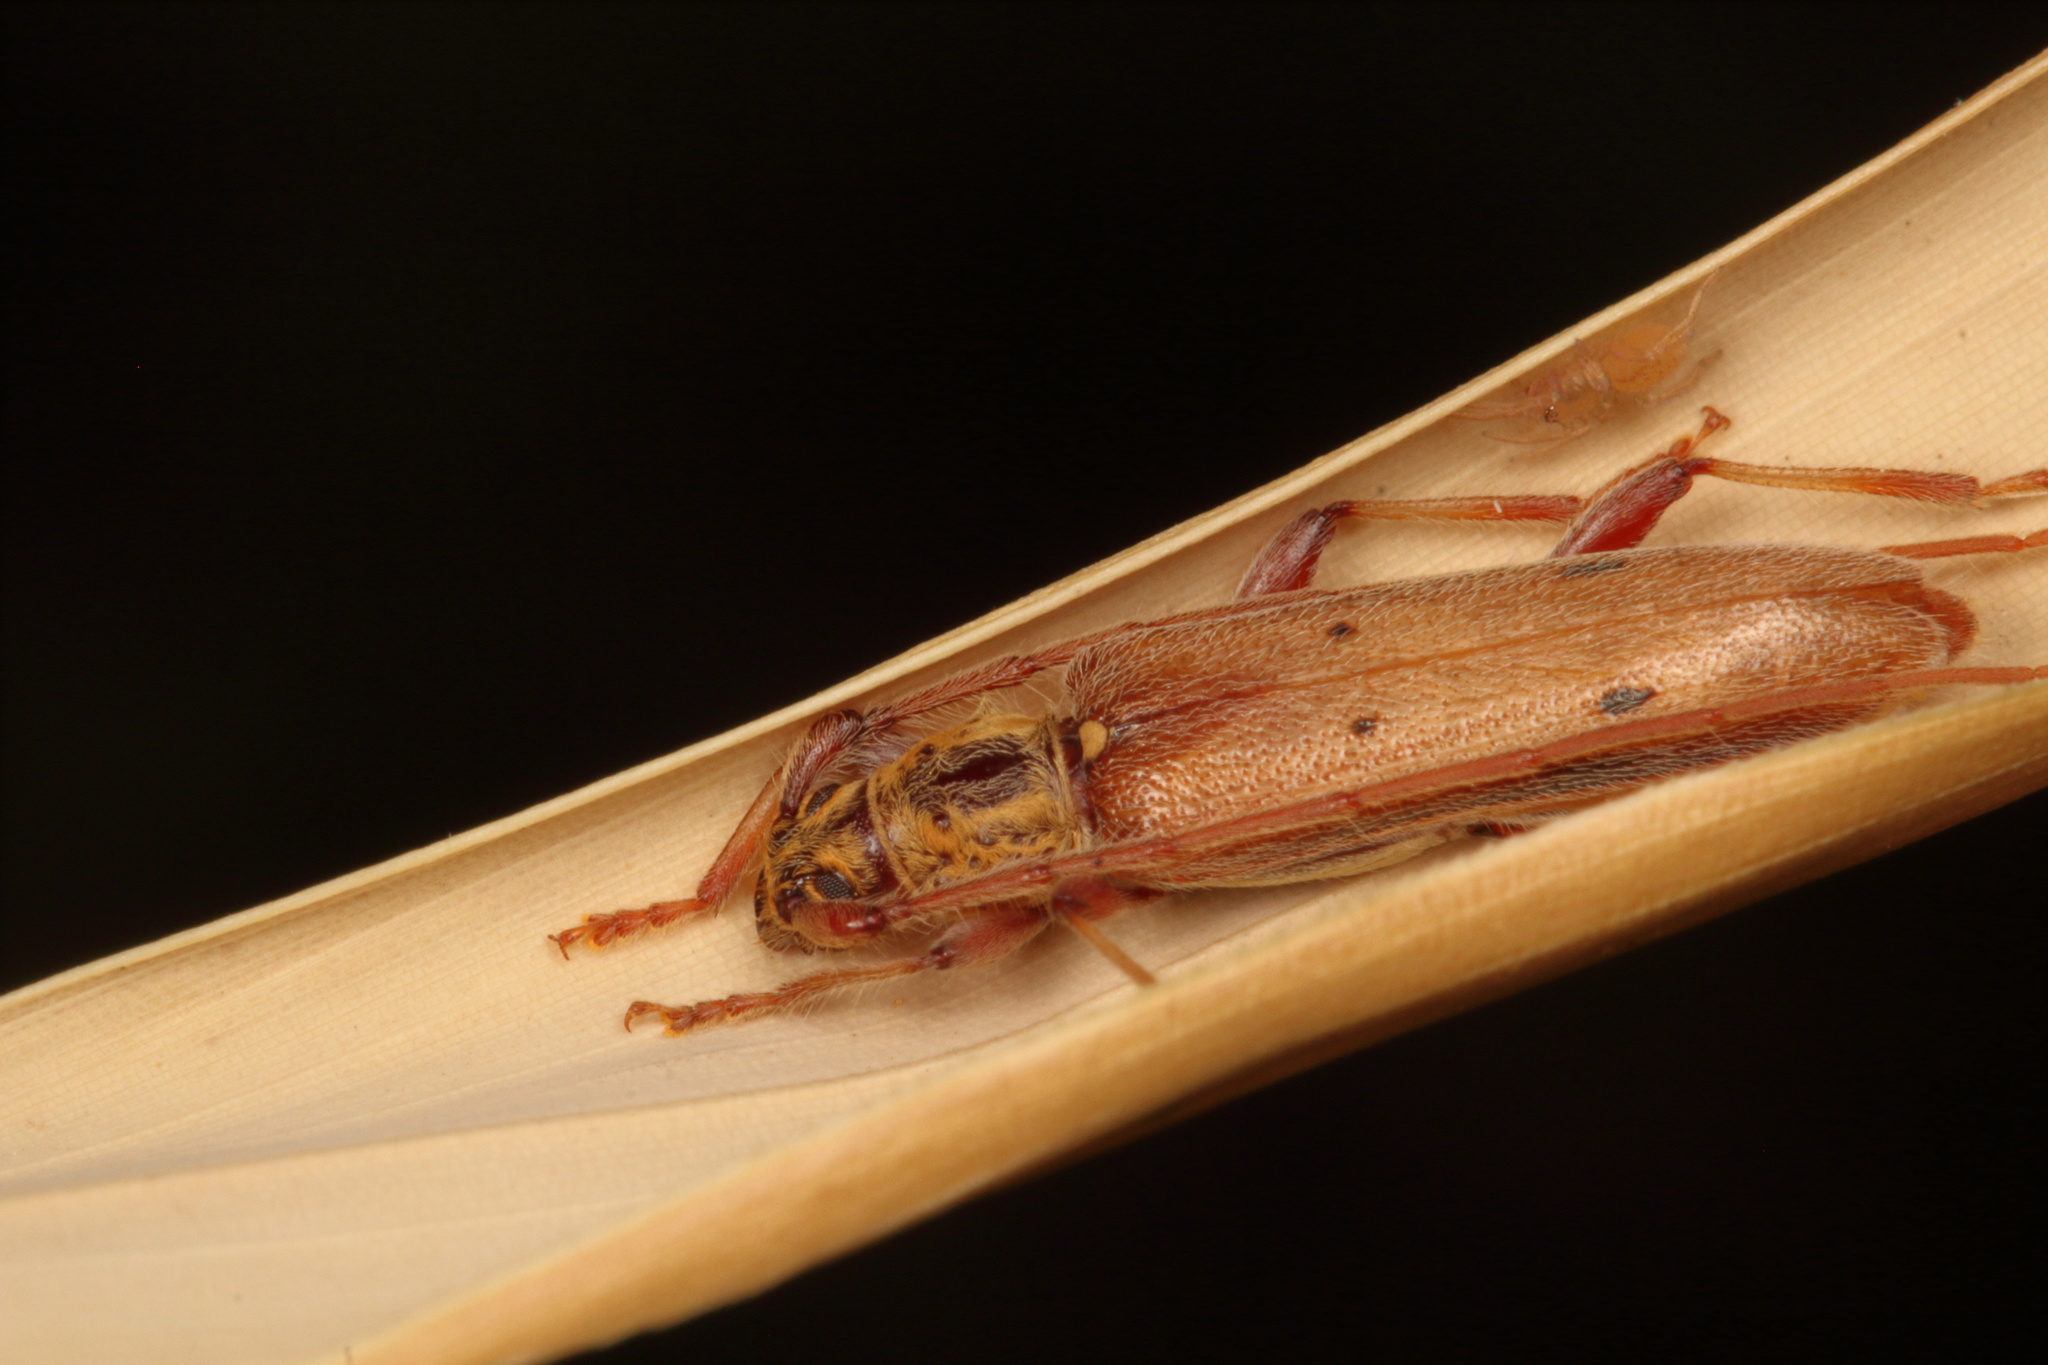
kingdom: Animalia
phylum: Arthropoda
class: Insecta
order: Coleoptera
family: Cerambycidae
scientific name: Cerambycidae
